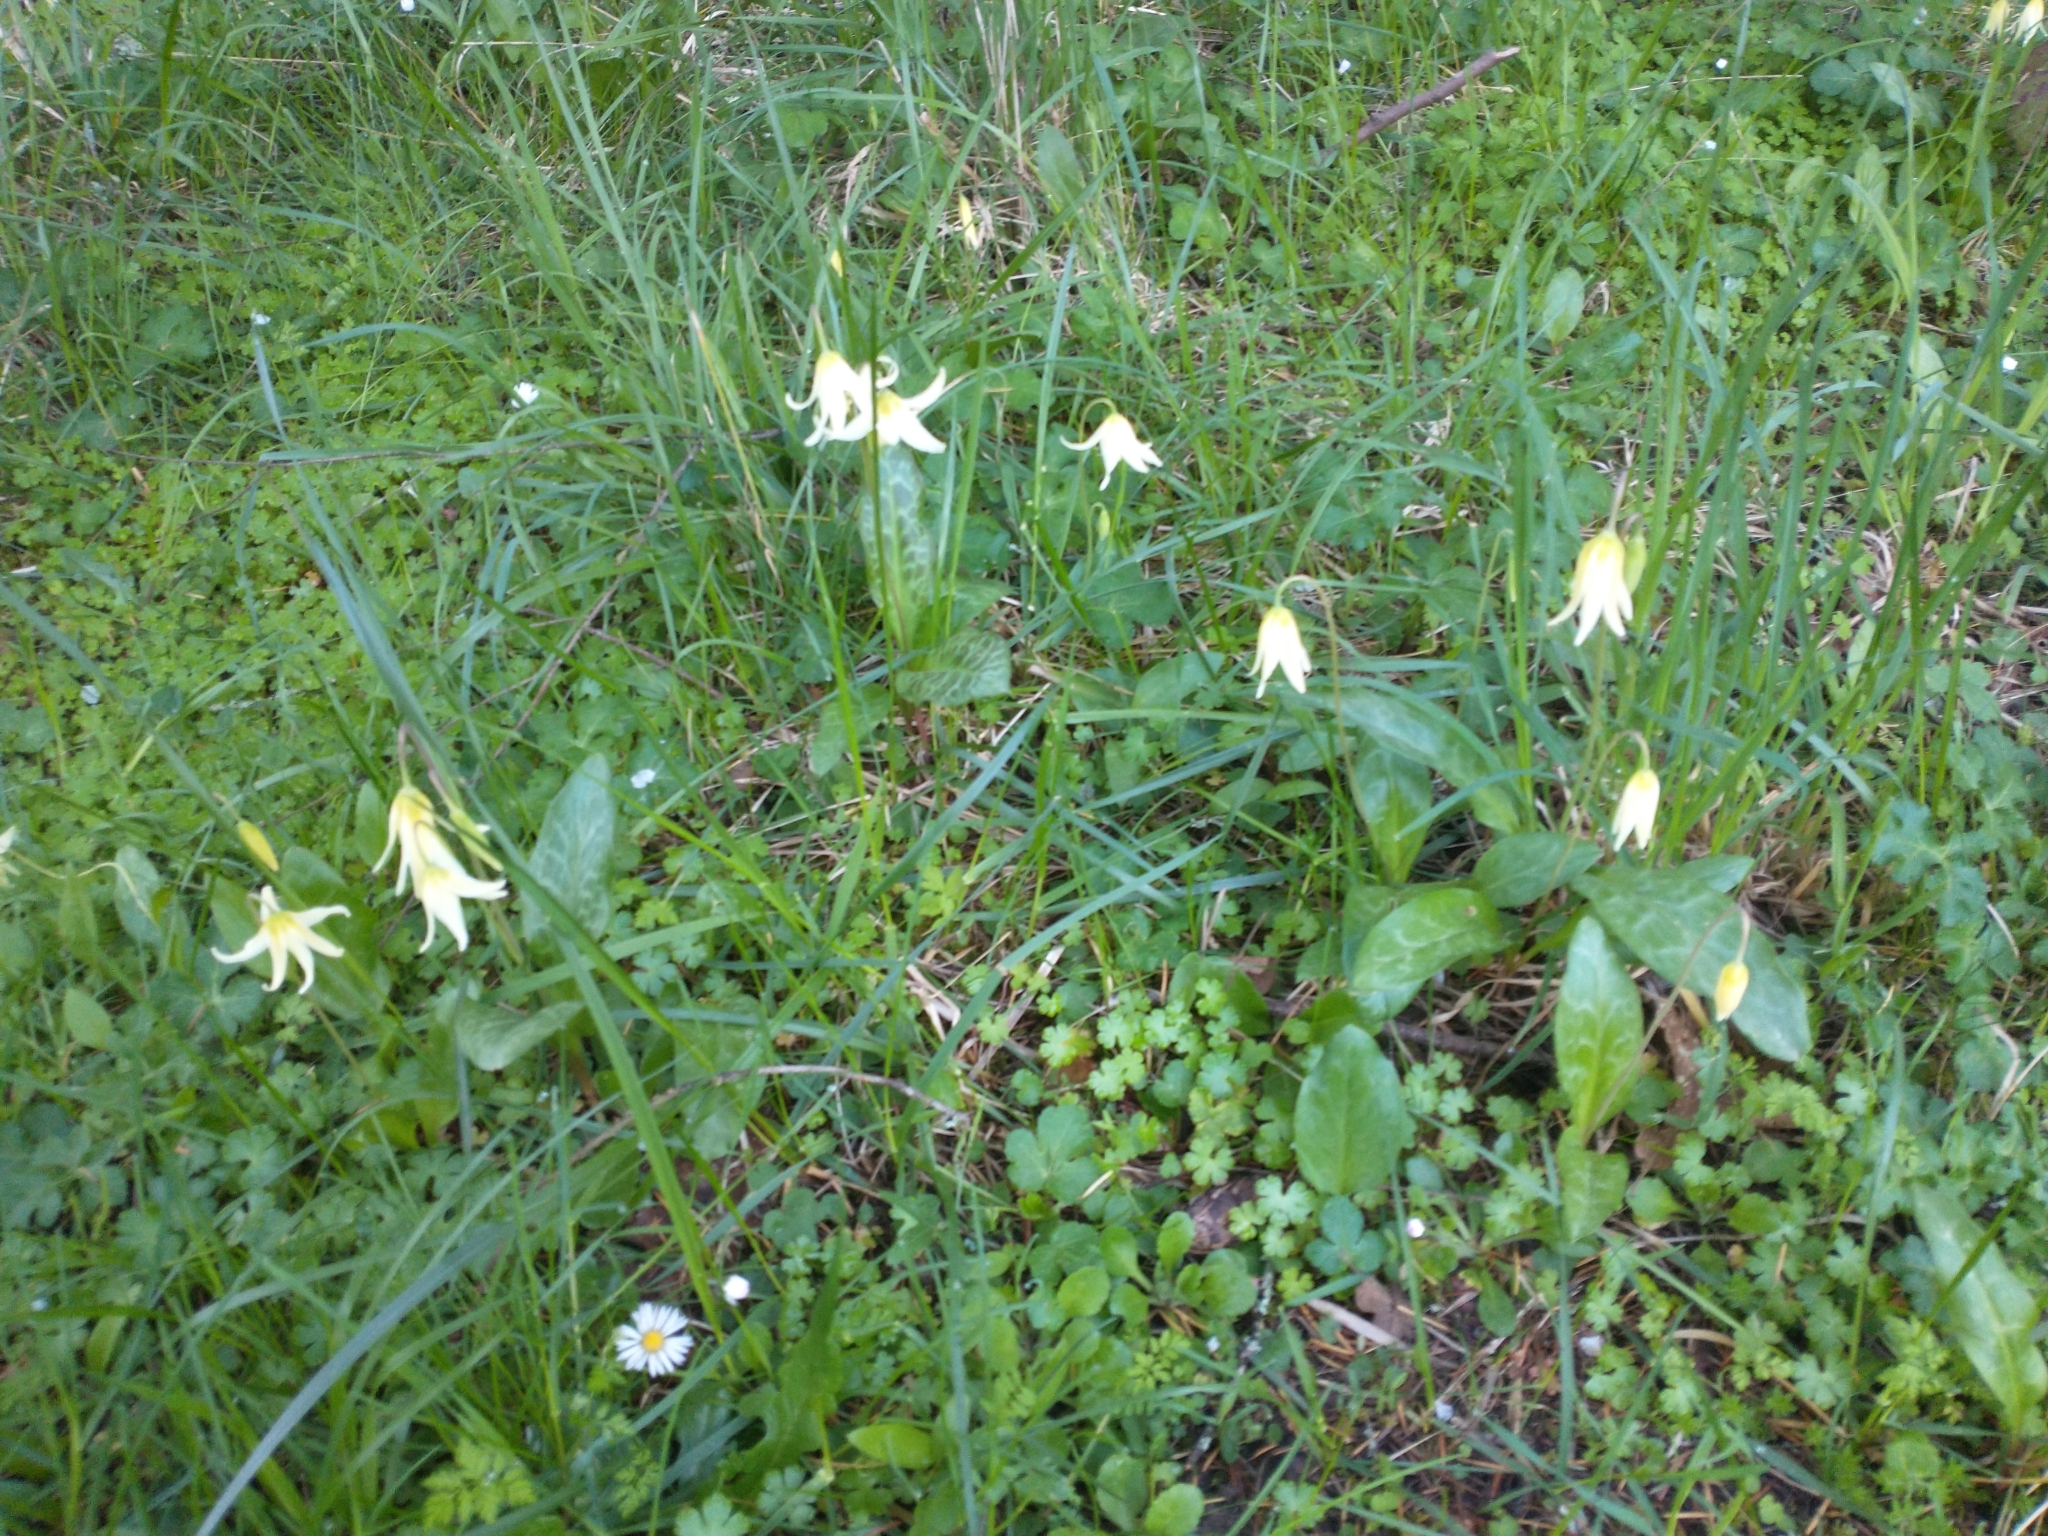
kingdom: Plantae
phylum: Tracheophyta
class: Liliopsida
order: Liliales
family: Liliaceae
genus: Erythronium
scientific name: Erythronium oregonum
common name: Giant adder's-tongue
